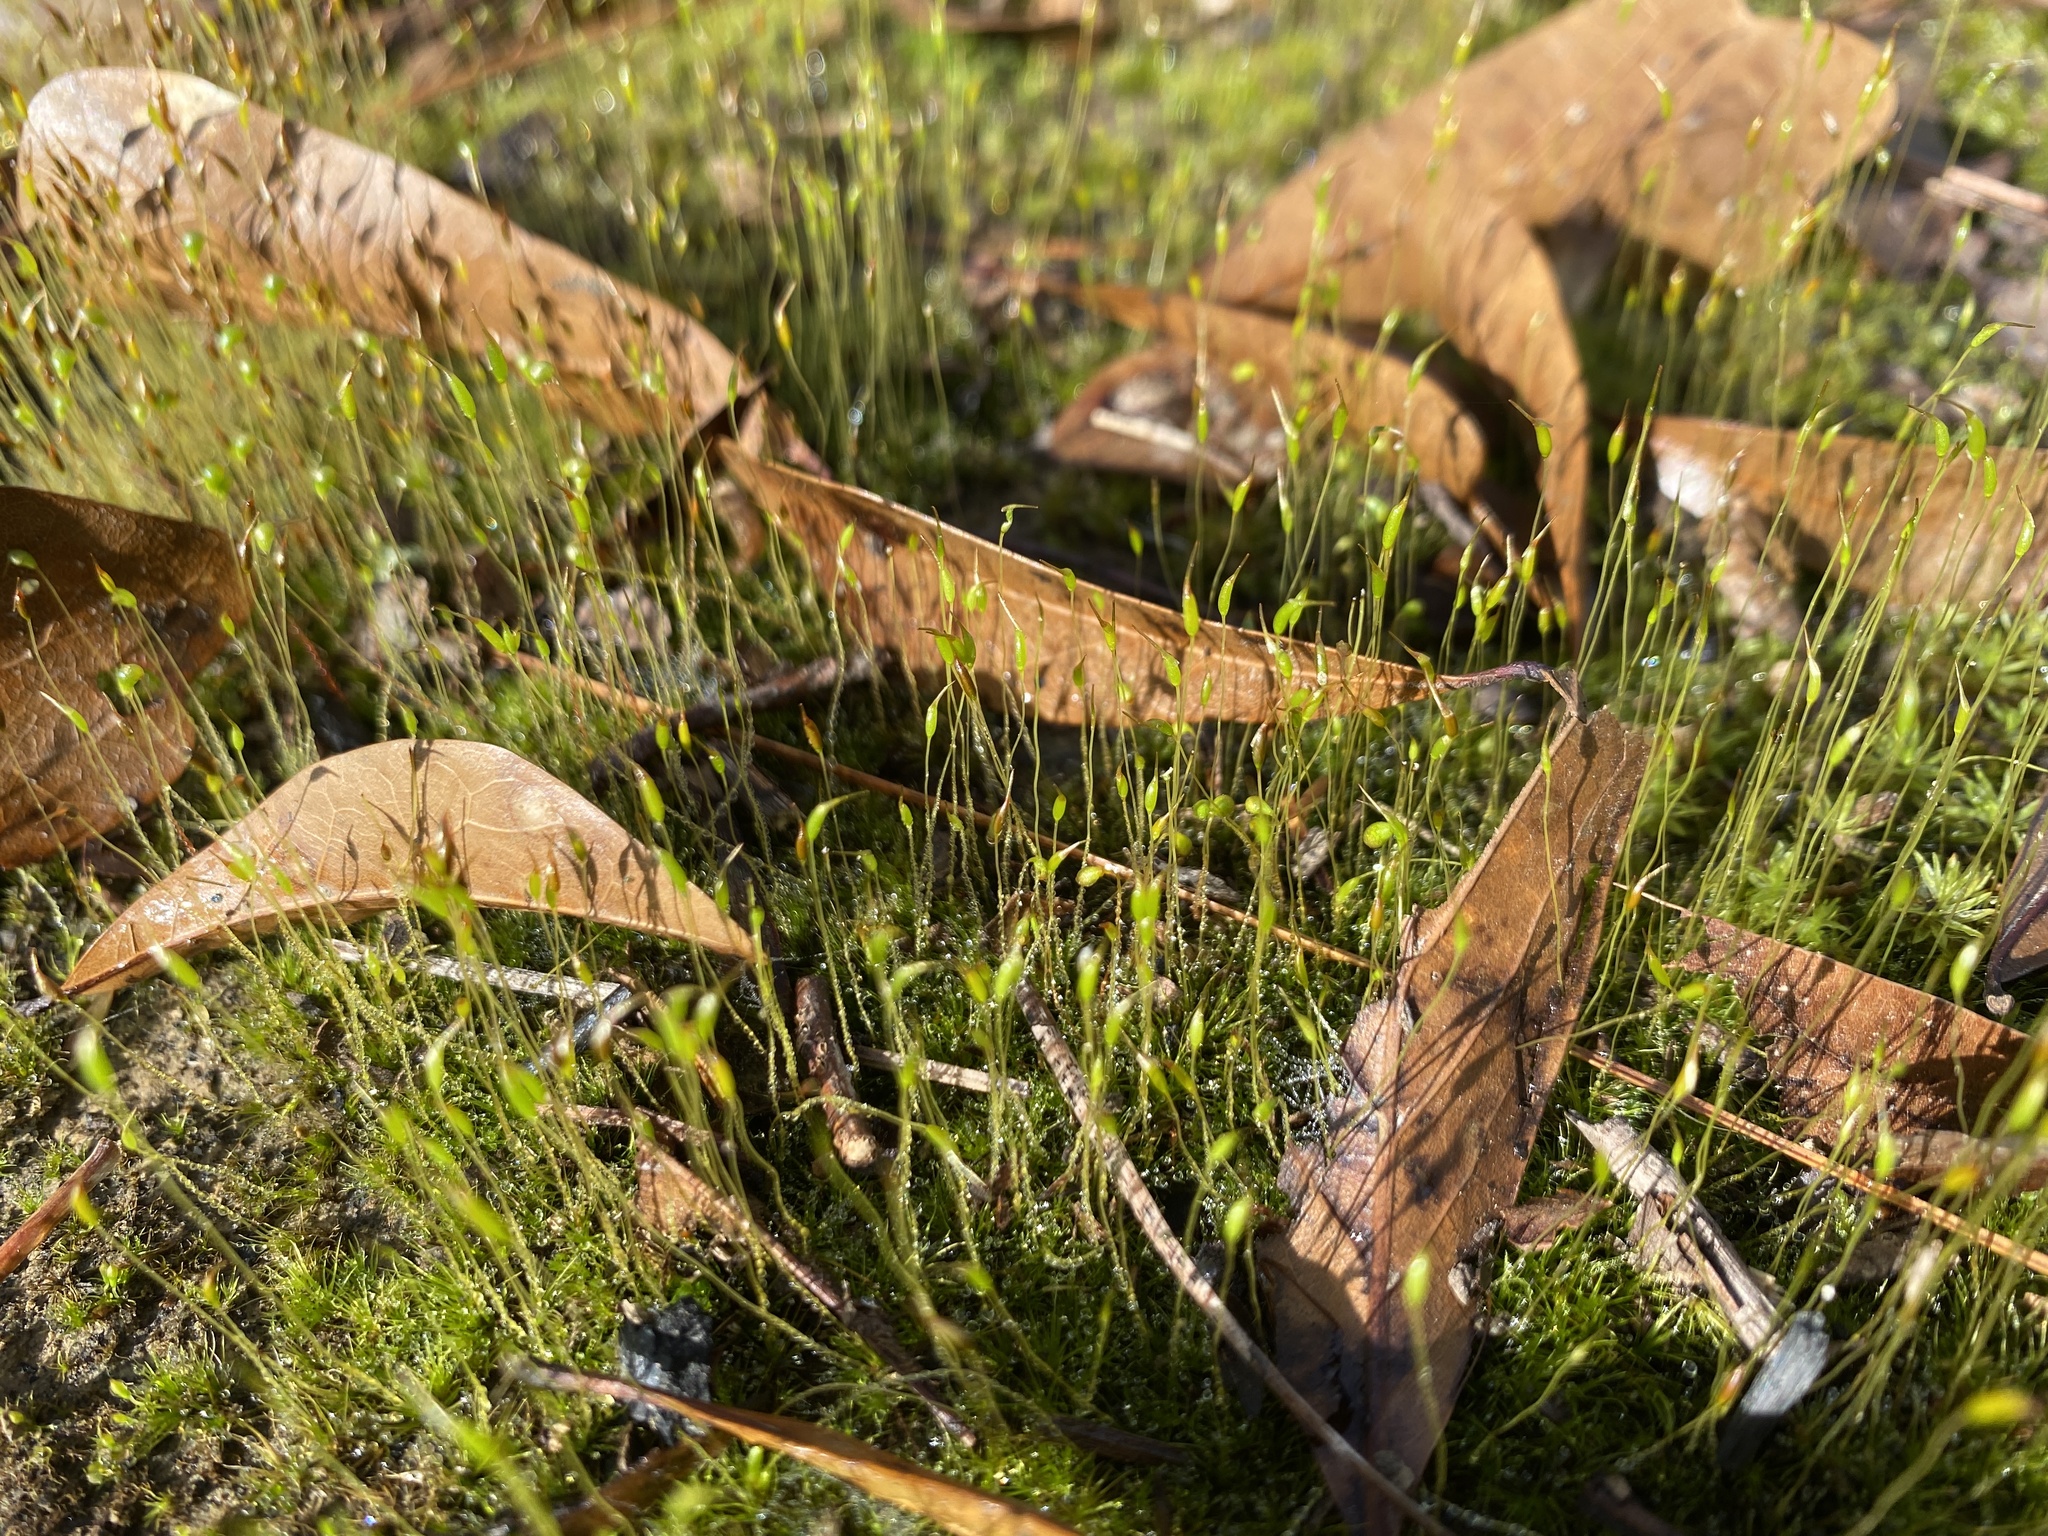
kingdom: Plantae
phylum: Bryophyta
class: Polytrichopsida
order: Polytrichales
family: Polytrichaceae
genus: Polytrichum
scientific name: Polytrichum commune
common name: Common haircap
